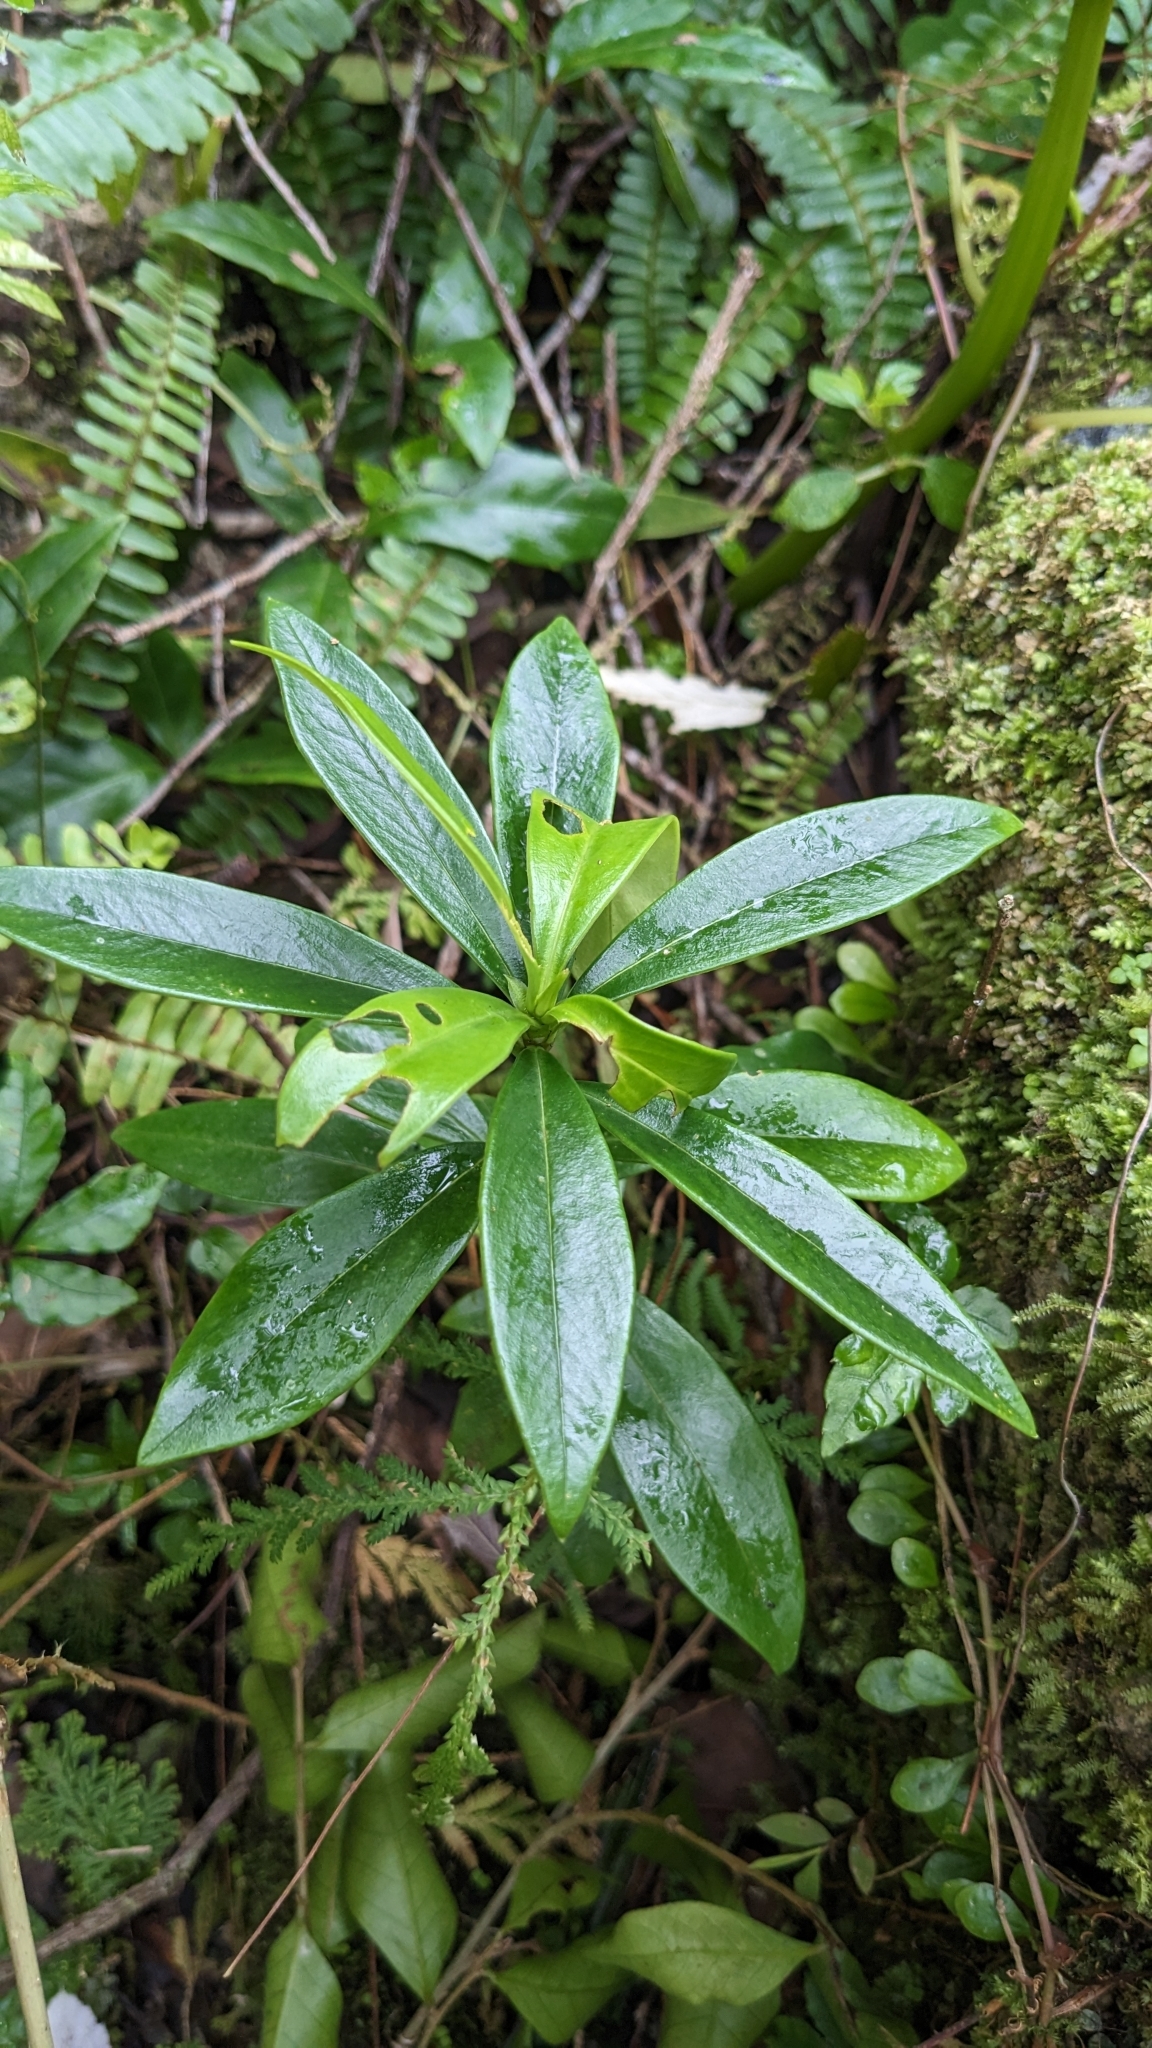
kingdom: Plantae
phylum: Tracheophyta
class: Magnoliopsida
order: Malvales
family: Thymelaeaceae
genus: Daphne
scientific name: Daphne arisanensis
